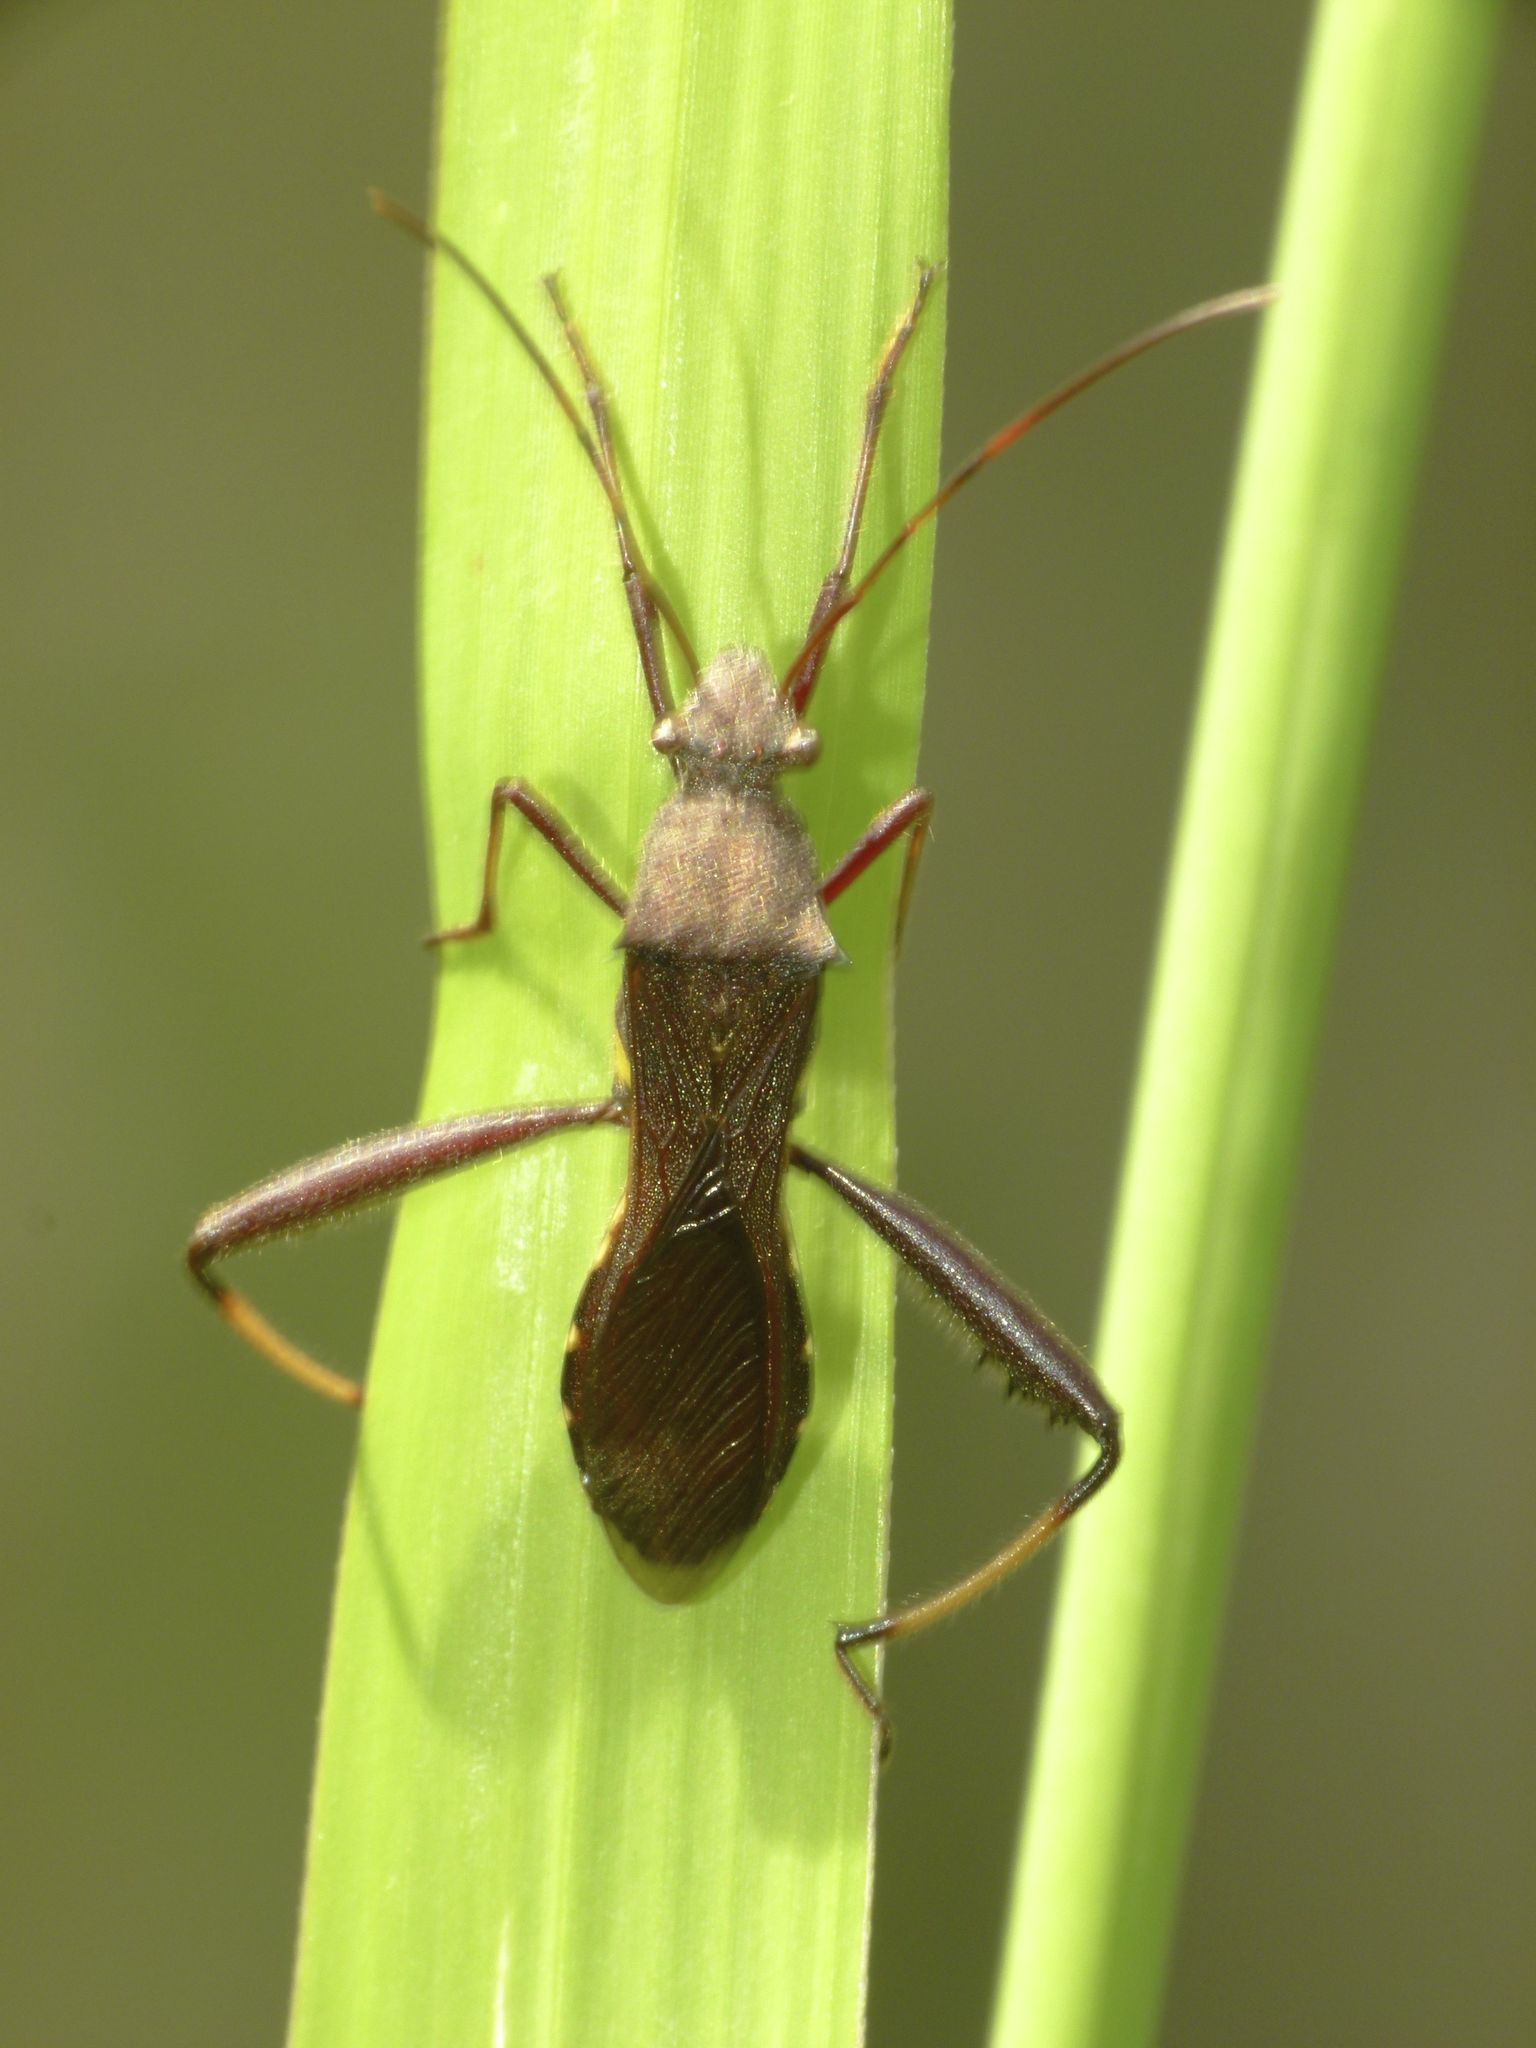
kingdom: Animalia
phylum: Arthropoda
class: Insecta
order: Hemiptera
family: Alydidae
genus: Riptortus
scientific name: Riptortus serripes
